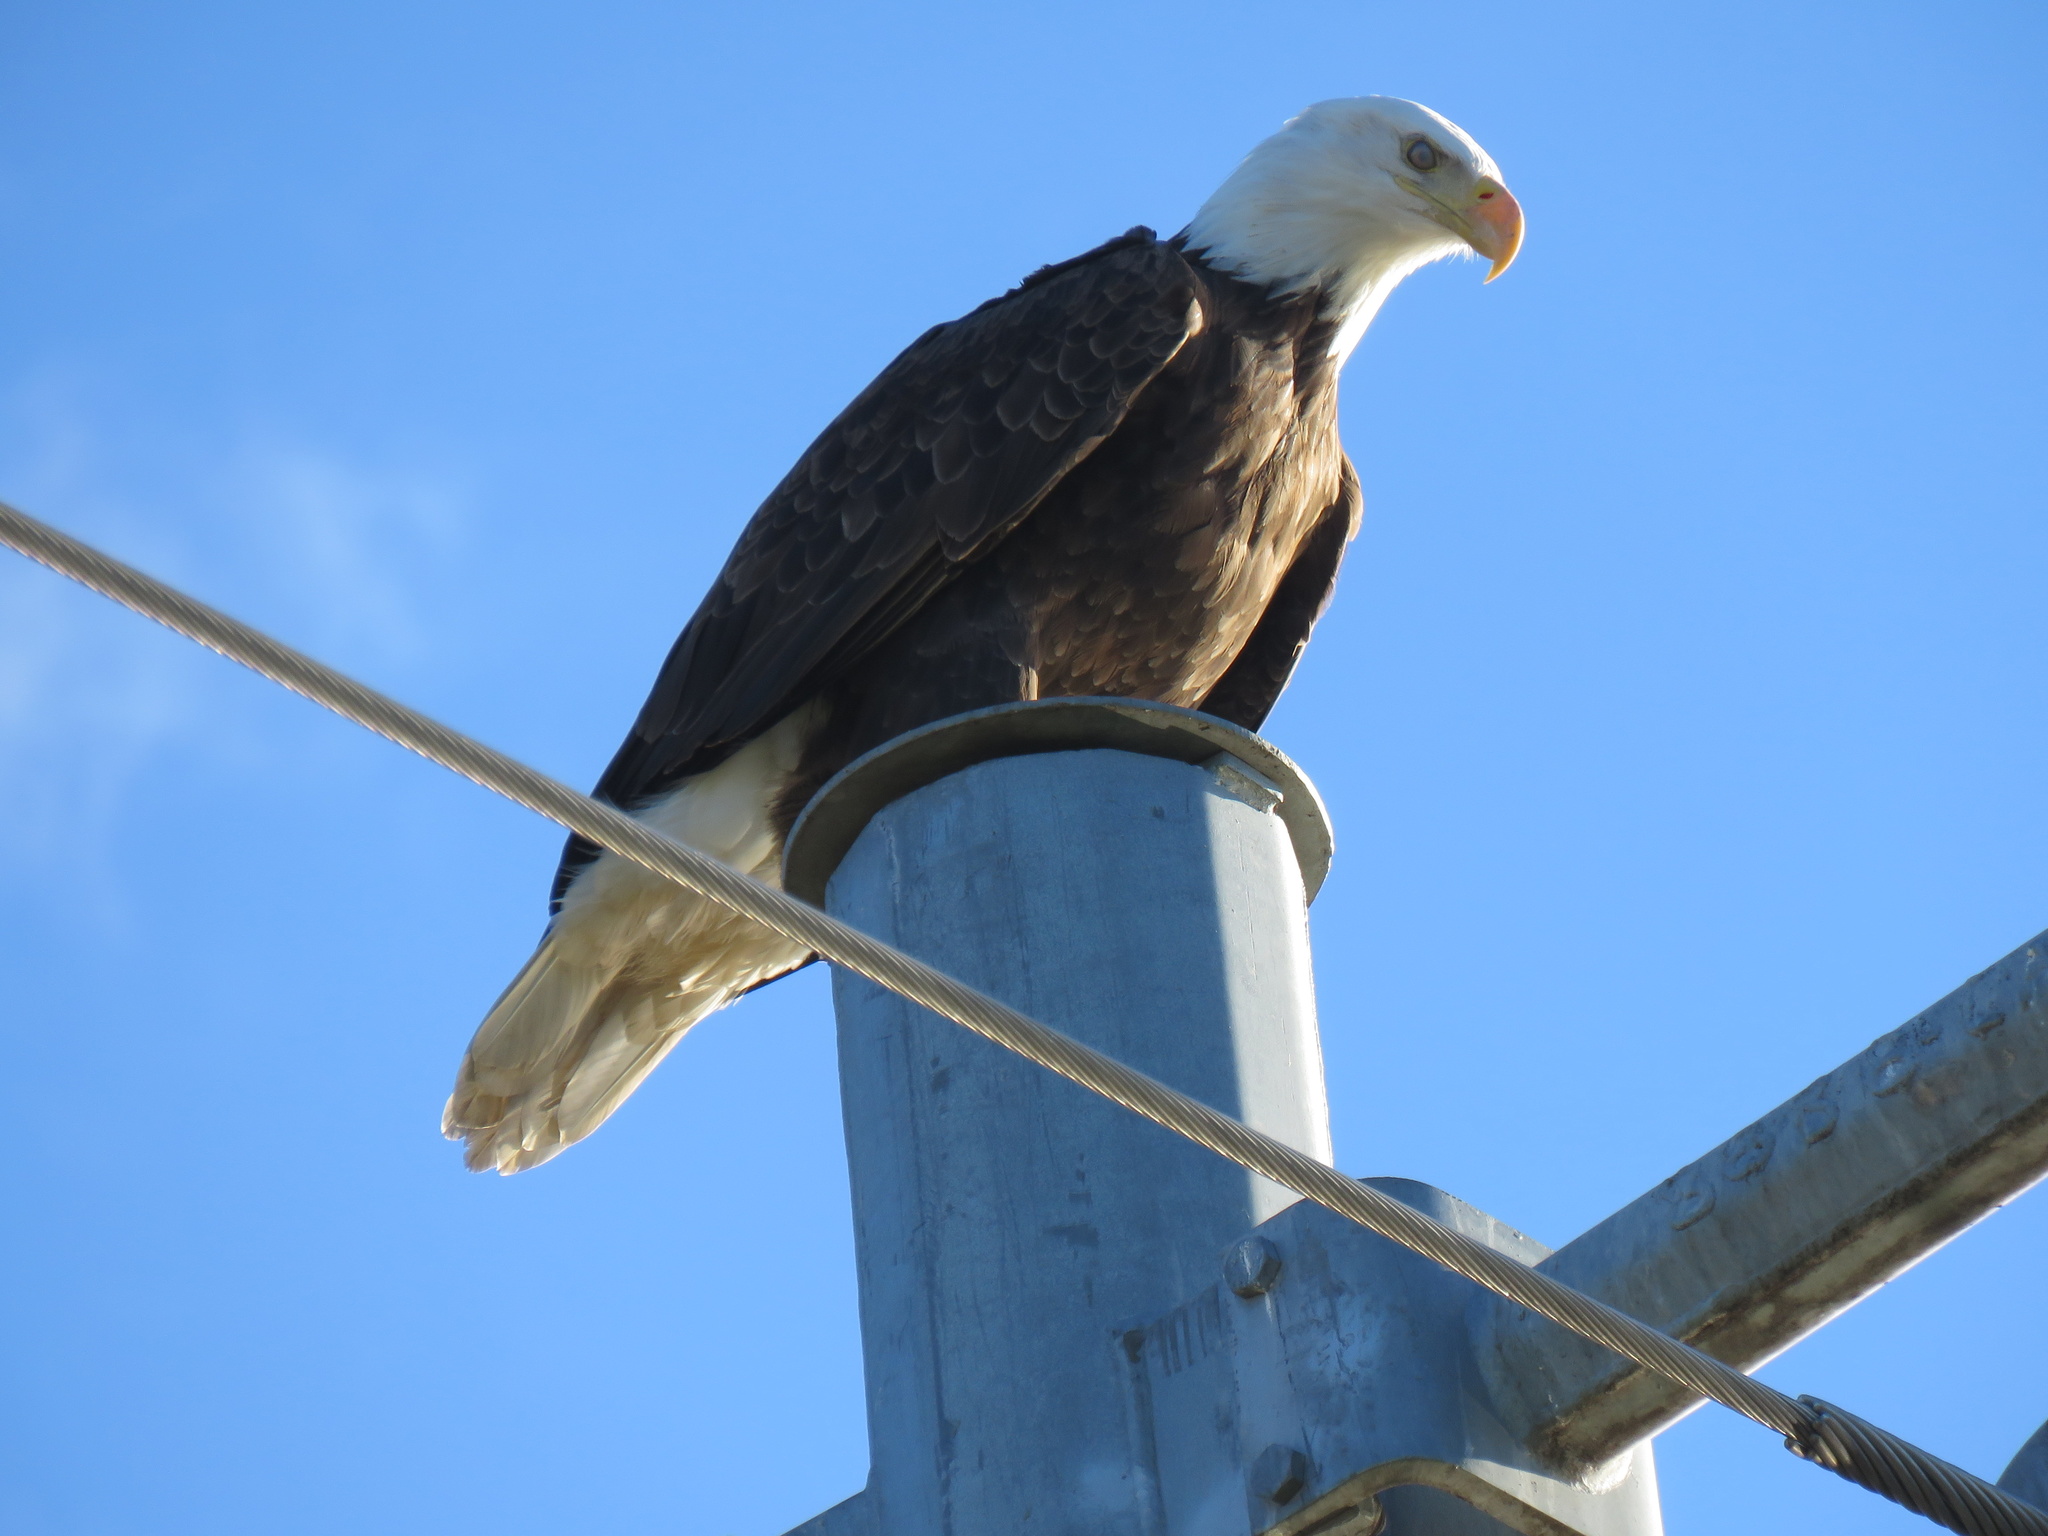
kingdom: Animalia
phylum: Chordata
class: Aves
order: Accipitriformes
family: Accipitridae
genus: Haliaeetus
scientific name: Haliaeetus leucocephalus
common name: Bald eagle
